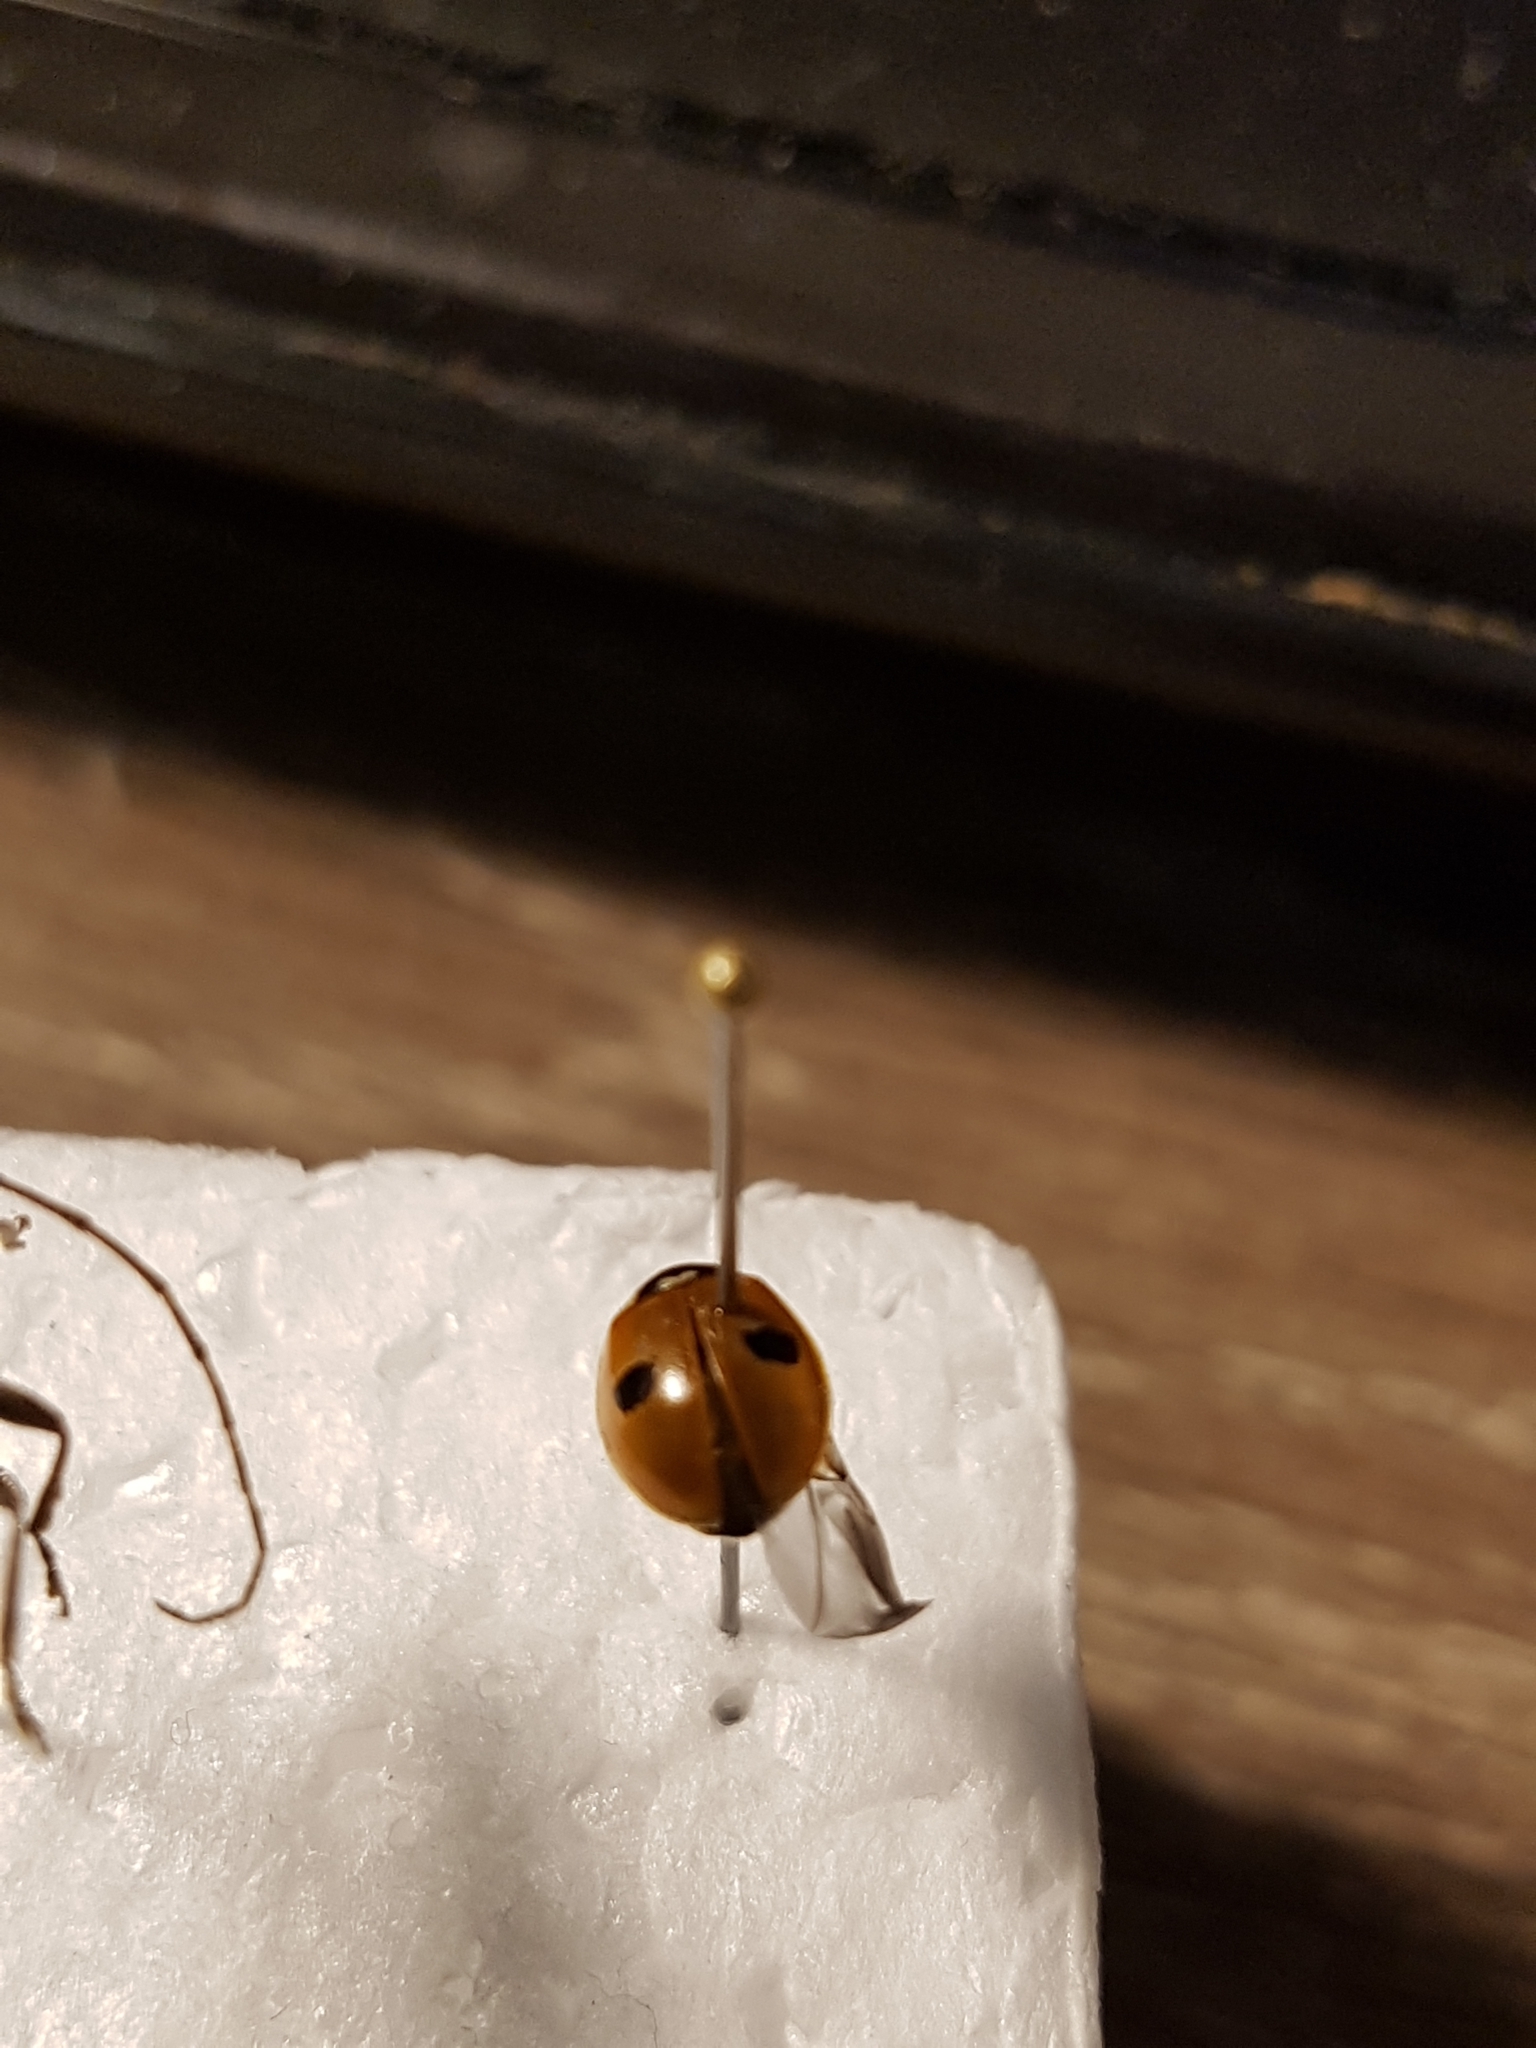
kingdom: Animalia
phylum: Arthropoda
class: Insecta
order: Coleoptera
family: Coccinellidae
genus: Adalia
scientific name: Adalia bipunctata
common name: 2-spot ladybird
